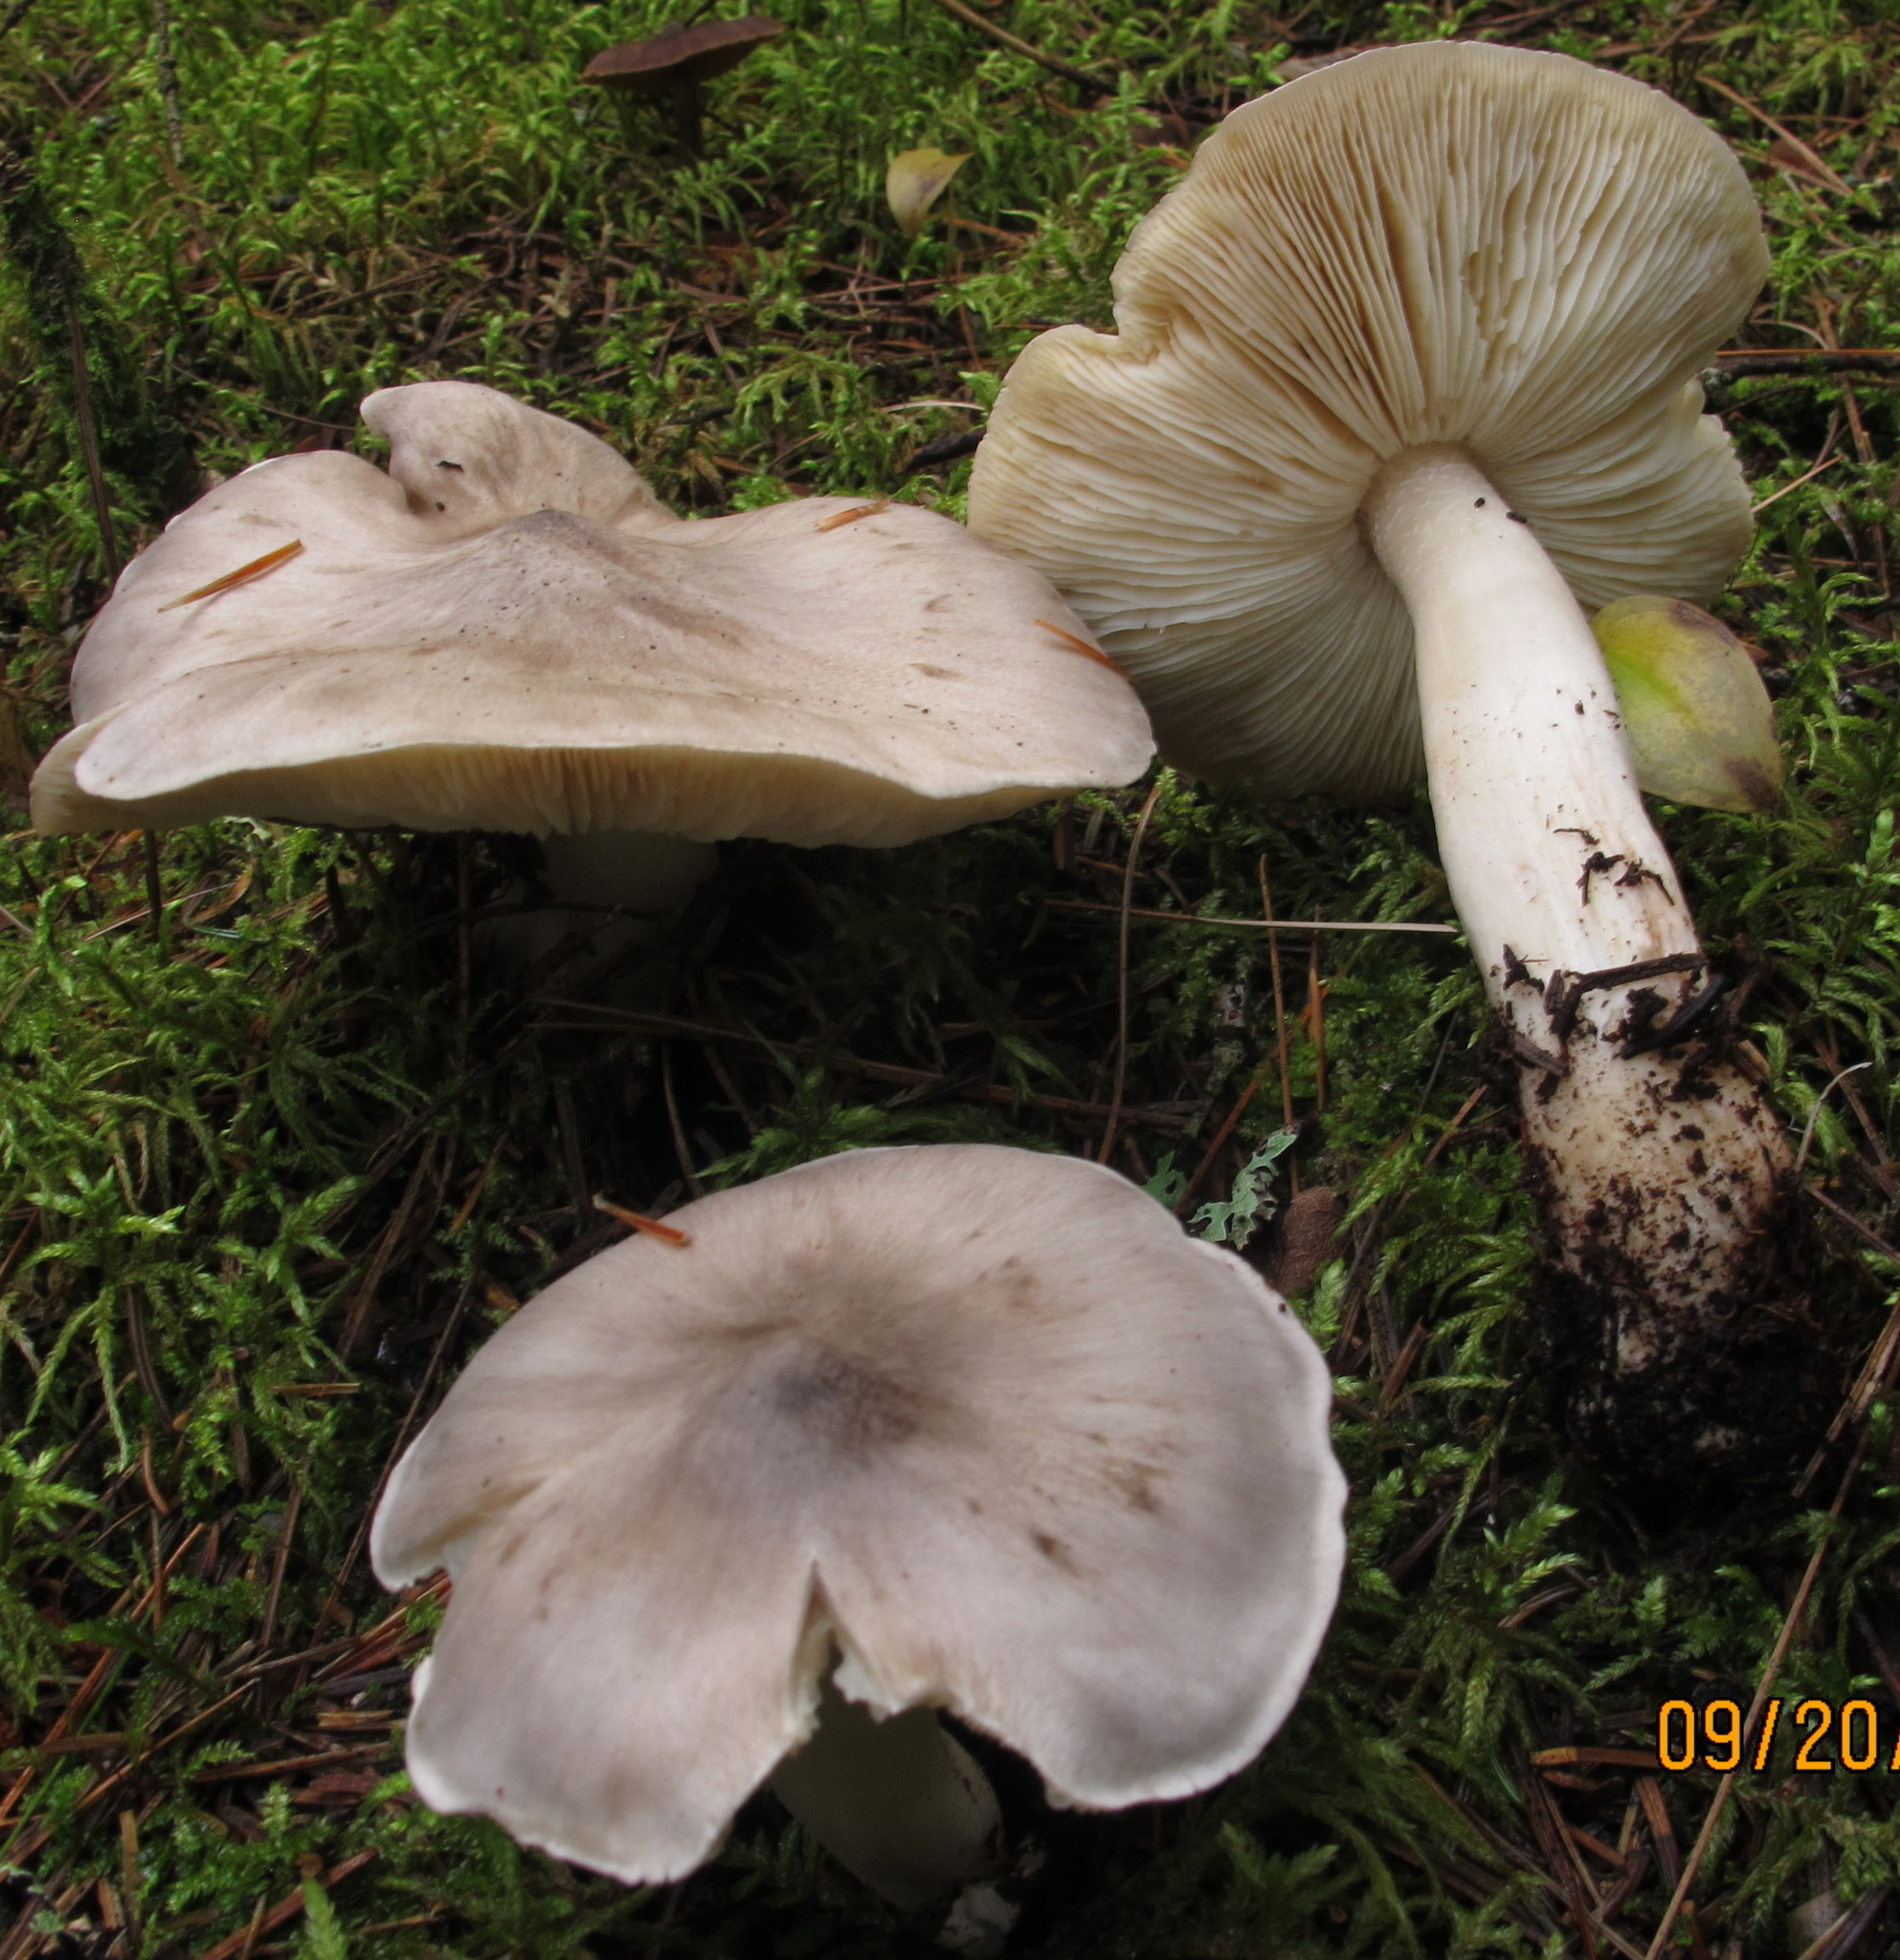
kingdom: Fungi
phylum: Basidiomycota
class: Agaricomycetes
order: Agaricales
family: Tricholomataceae
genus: Tricholoma
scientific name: Tricholoma virgatum
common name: Ashen knight
